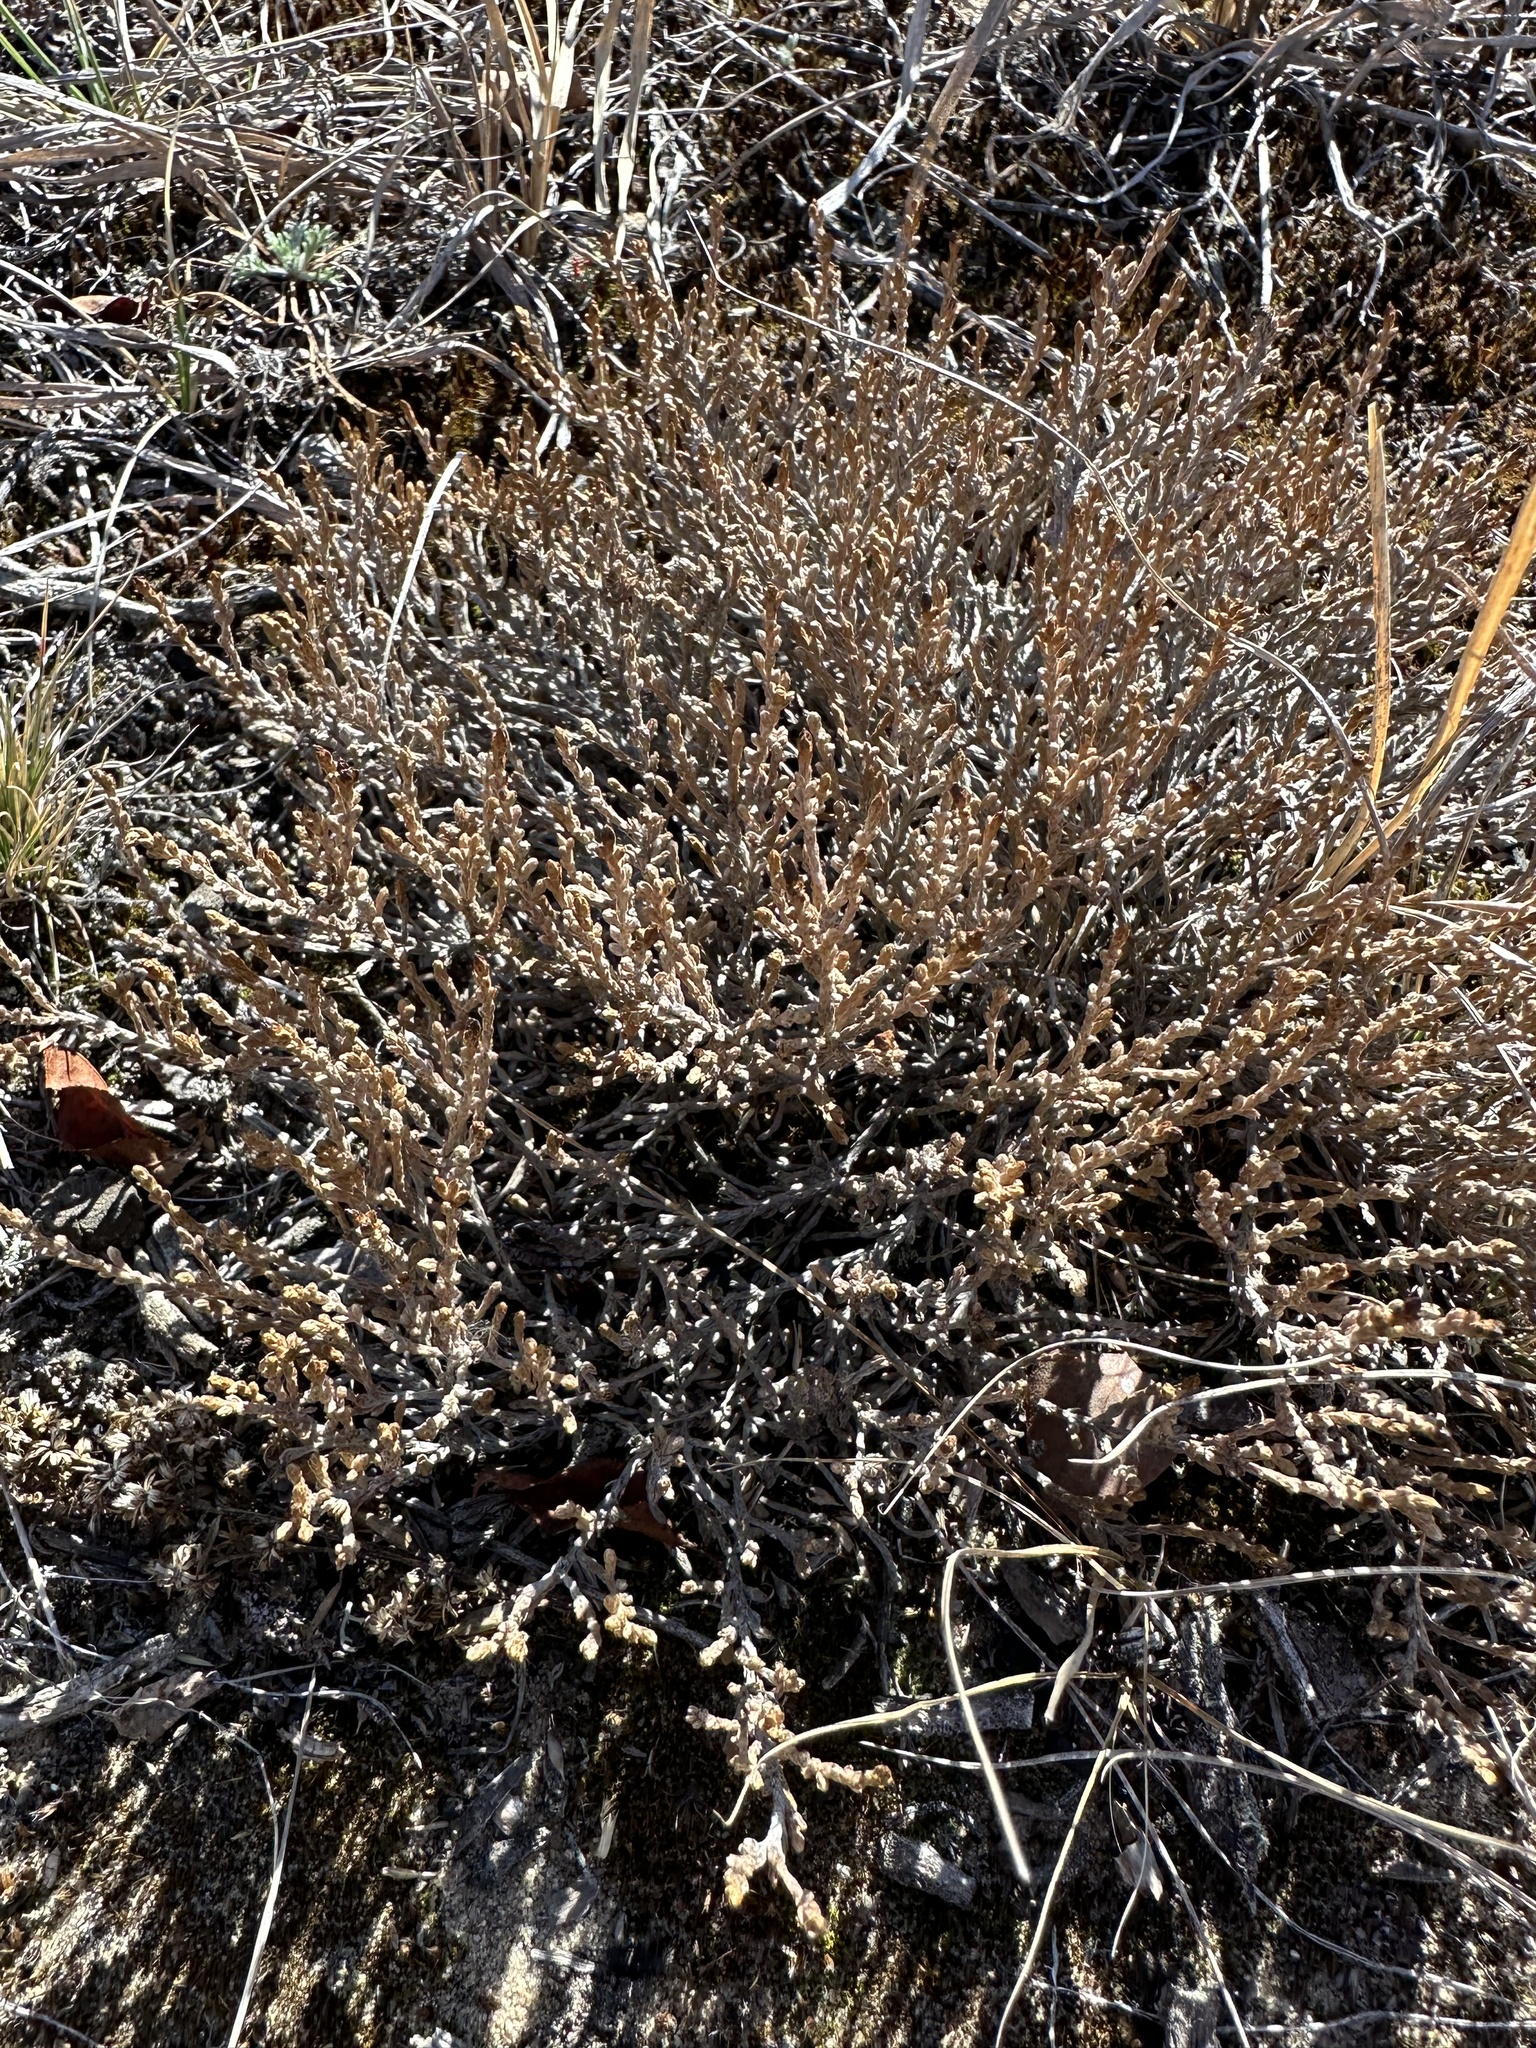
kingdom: Plantae
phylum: Tracheophyta
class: Magnoliopsida
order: Malvales
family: Cistaceae
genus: Hudsonia
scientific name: Hudsonia tomentosa
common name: Beach-heath
